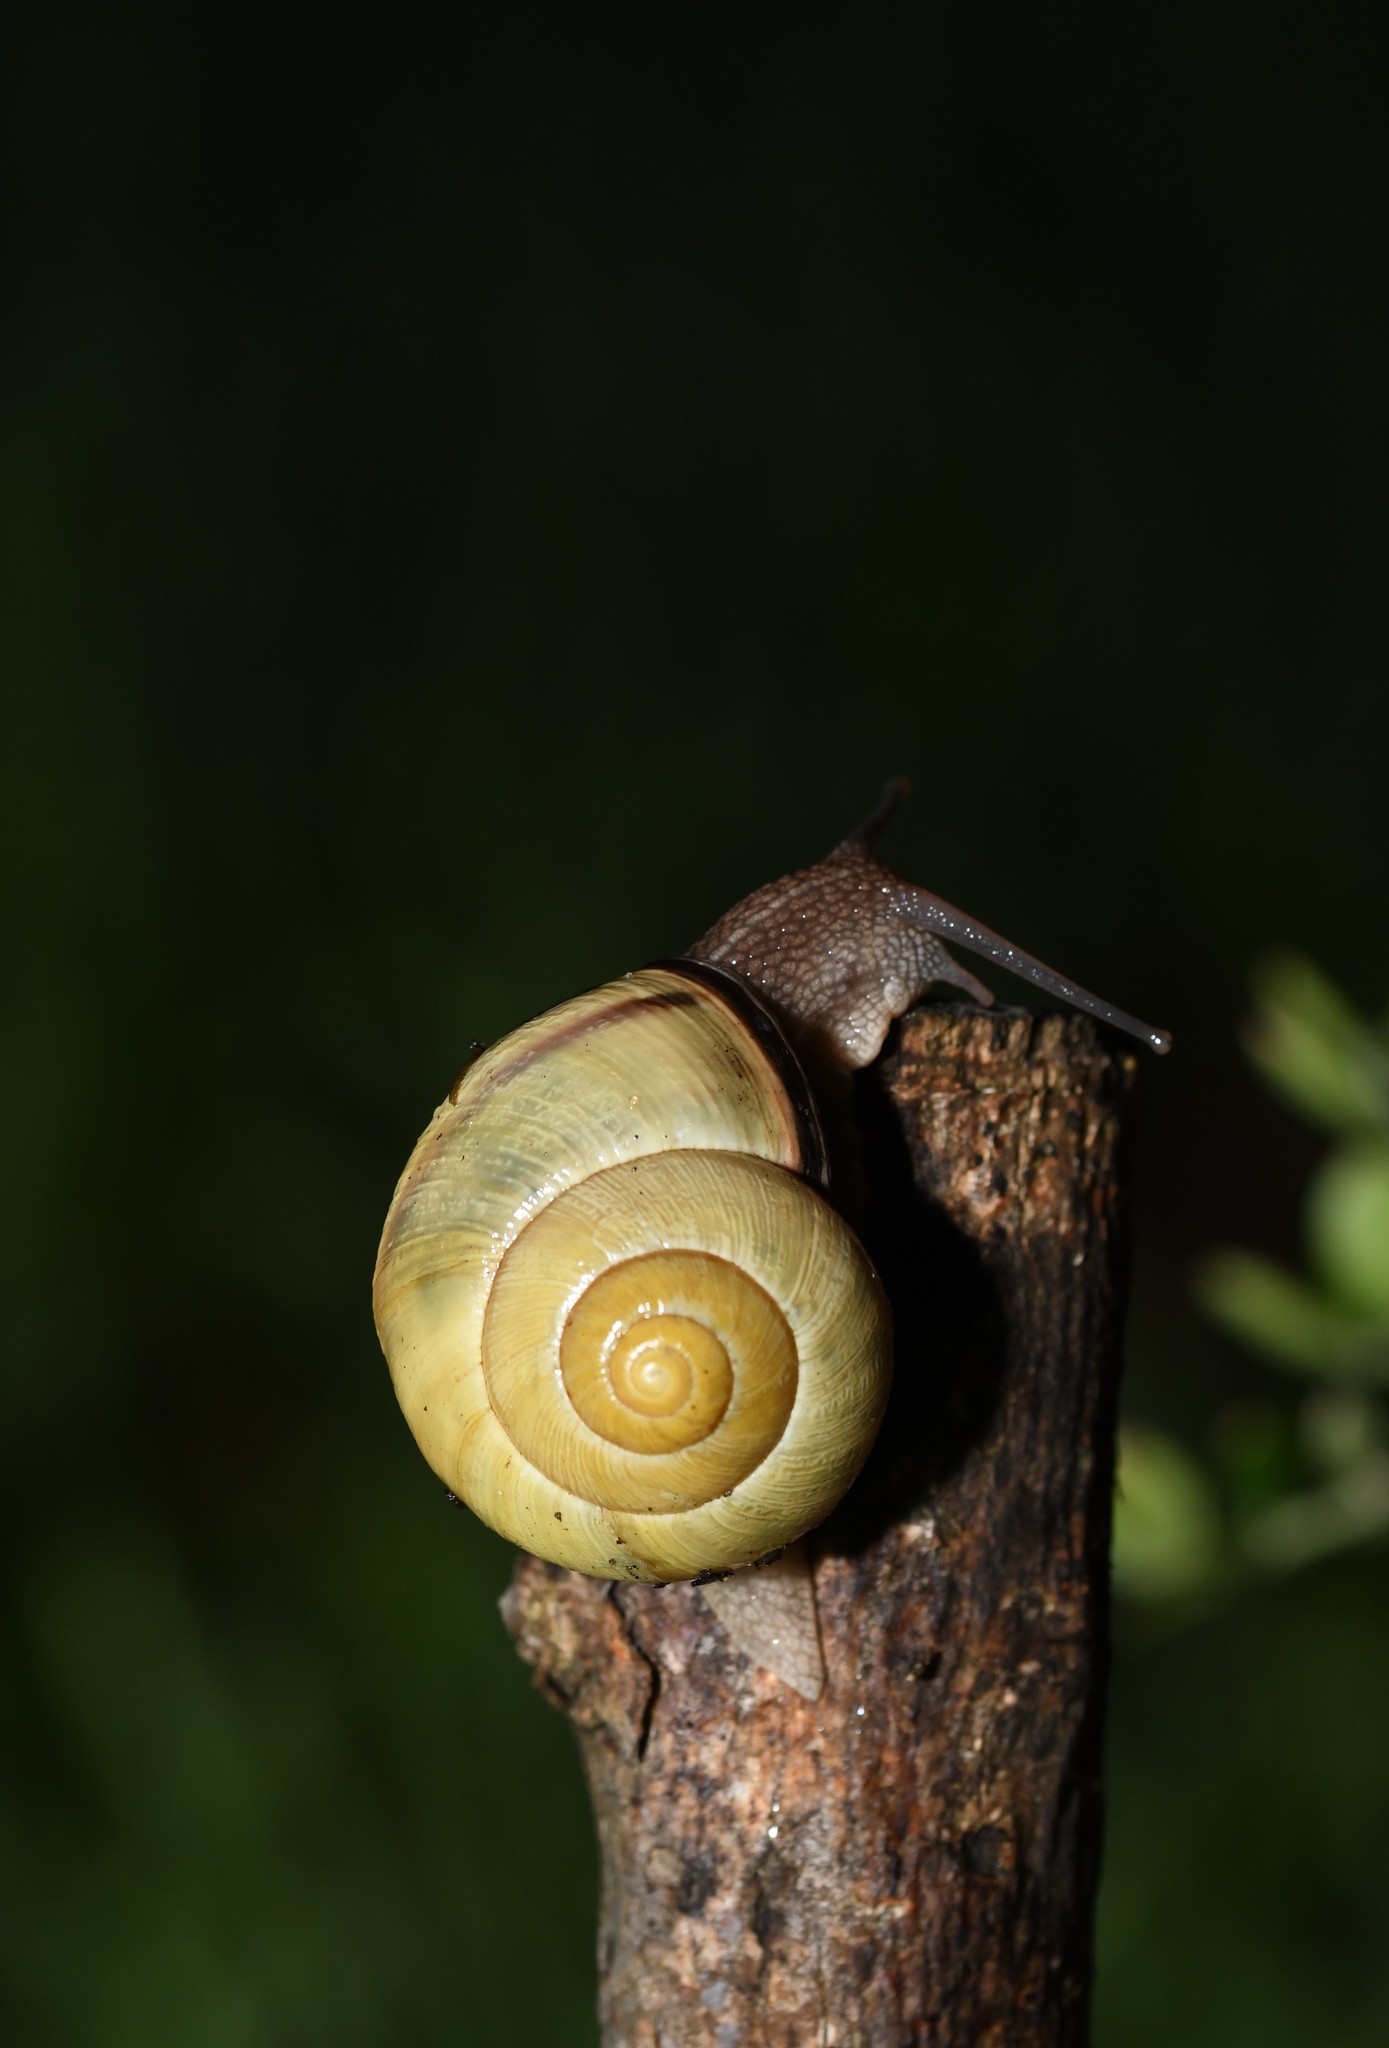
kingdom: Animalia
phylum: Mollusca
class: Gastropoda
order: Stylommatophora
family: Helicidae
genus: Cepaea
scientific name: Cepaea nemoralis
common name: Grovesnail
